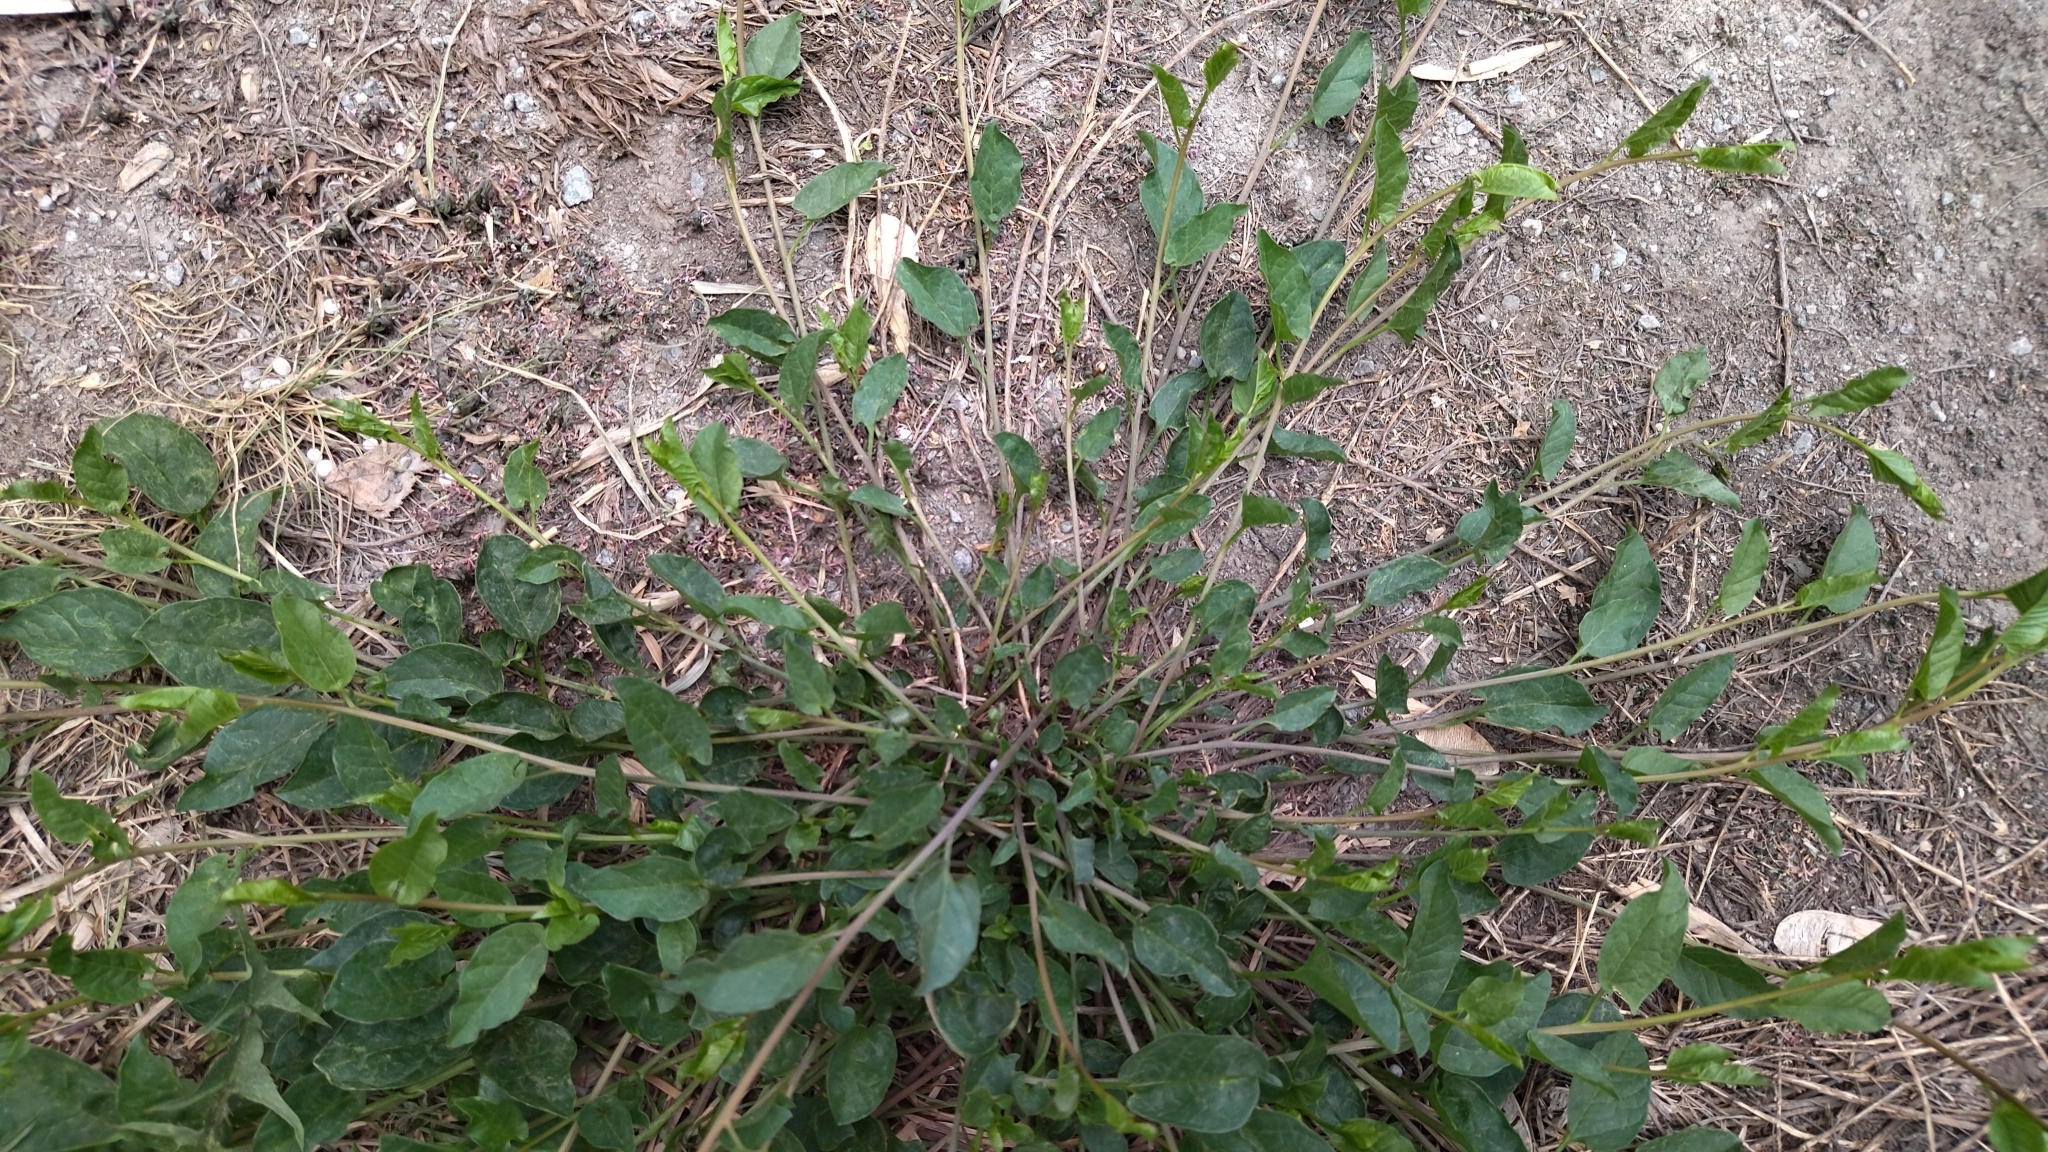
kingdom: Plantae
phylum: Tracheophyta
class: Magnoliopsida
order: Solanales
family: Convolvulaceae
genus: Convolvulus
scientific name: Convolvulus arvensis
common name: Field bindweed
